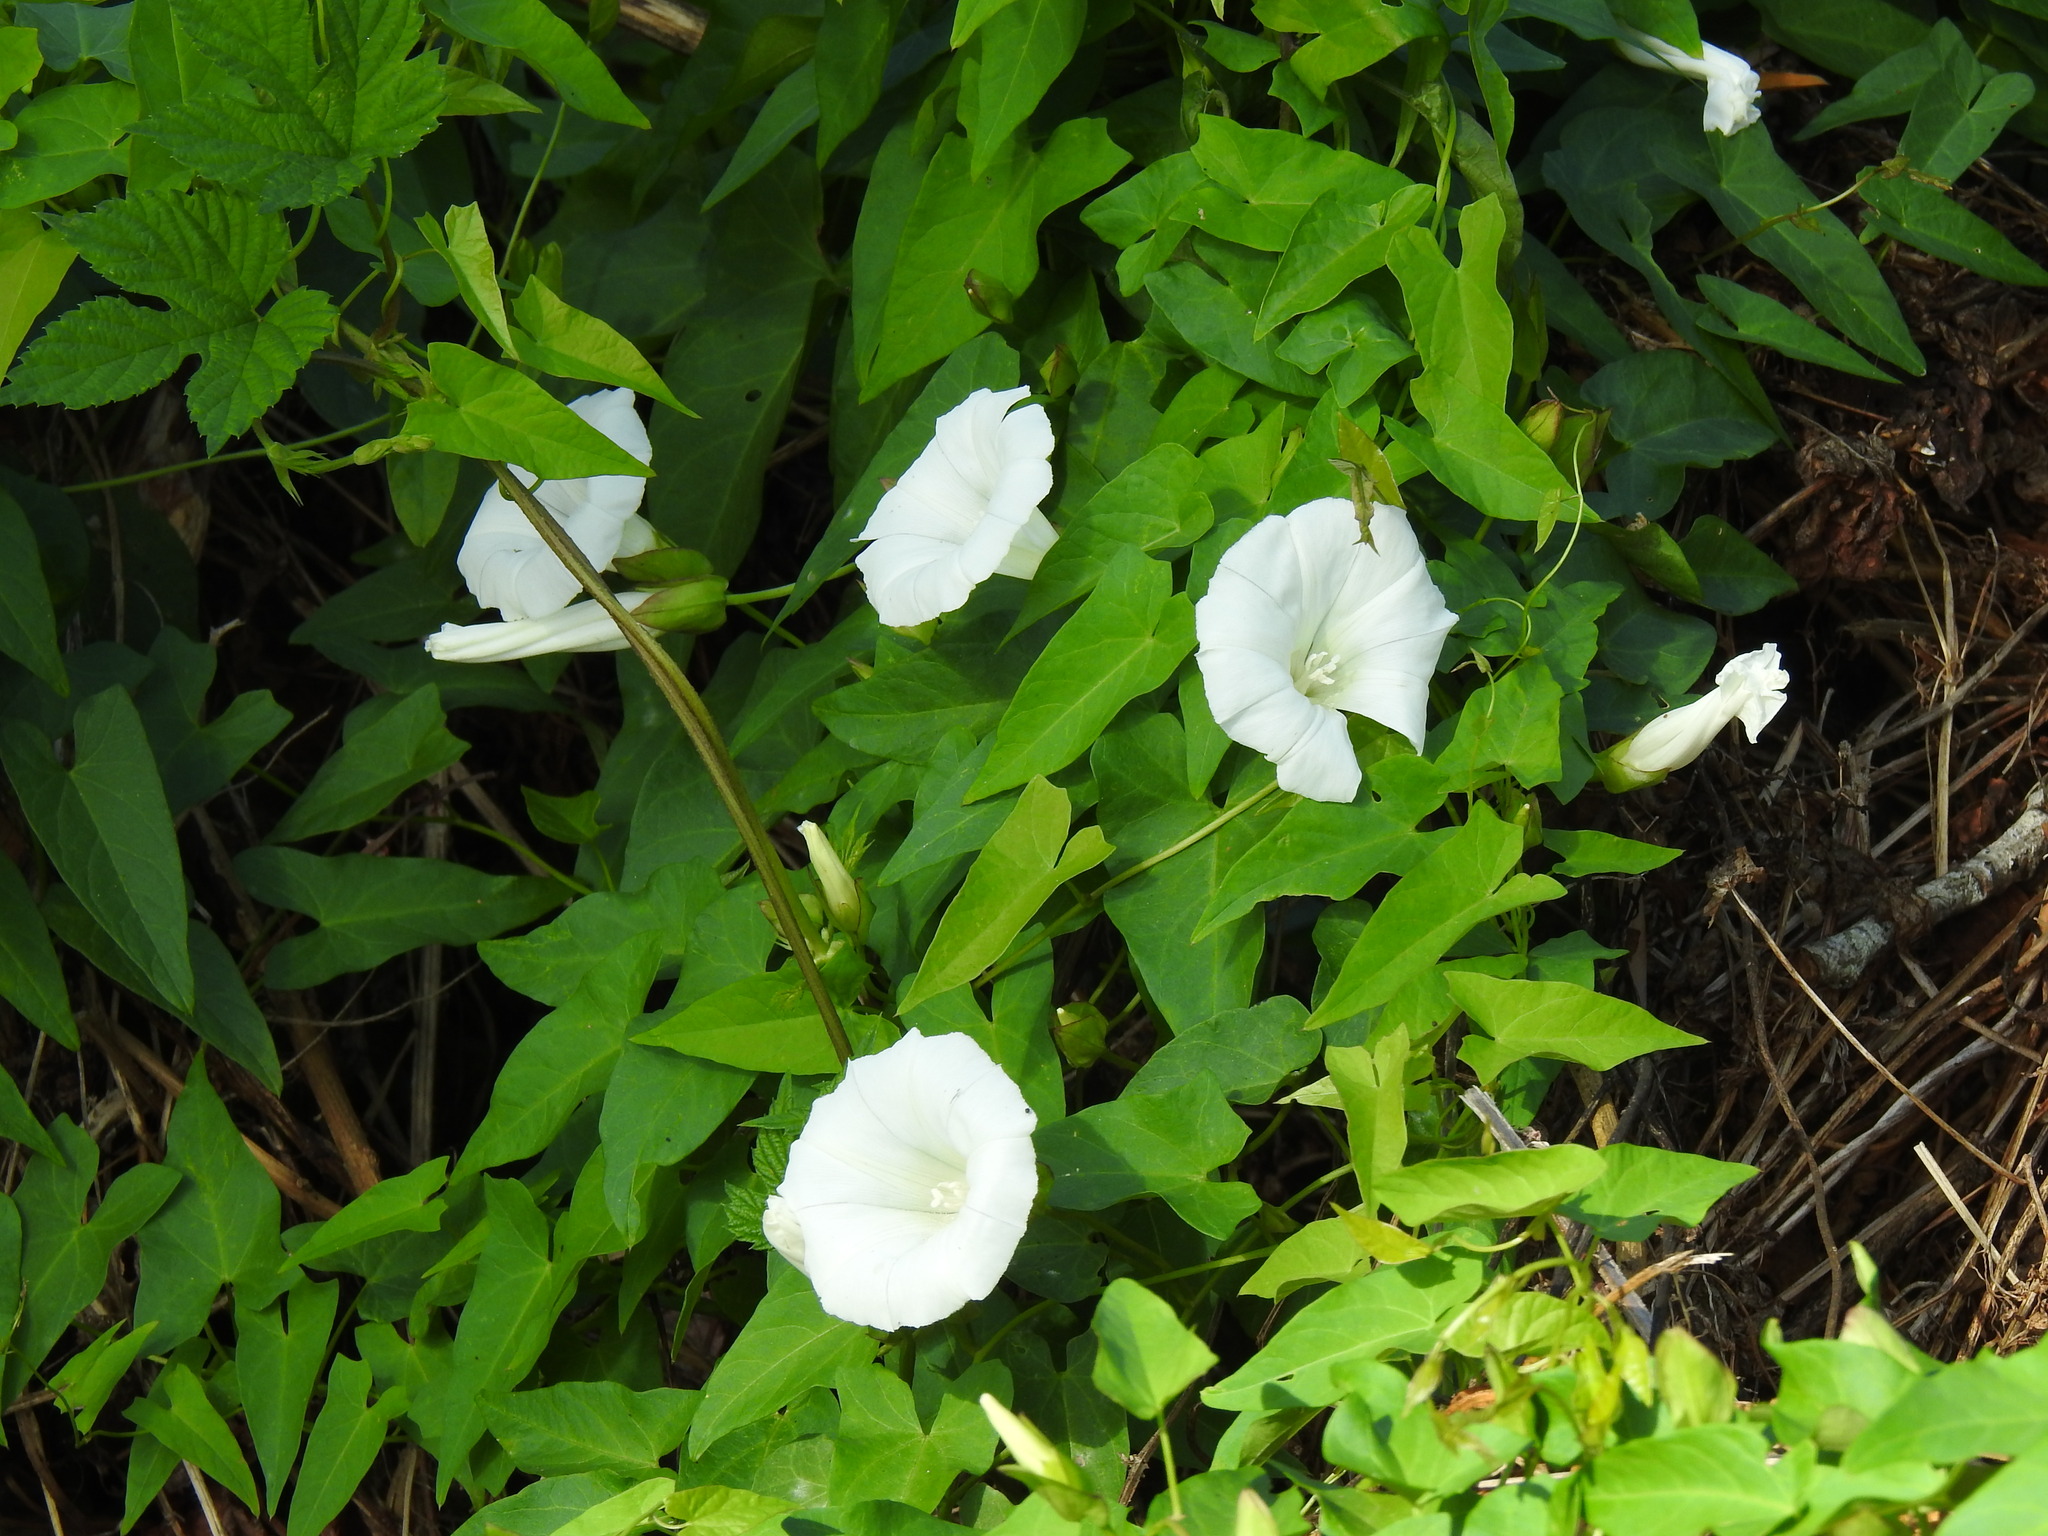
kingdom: Plantae
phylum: Tracheophyta
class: Magnoliopsida
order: Solanales
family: Convolvulaceae
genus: Calystegia
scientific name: Calystegia sepium
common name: Hedge bindweed
